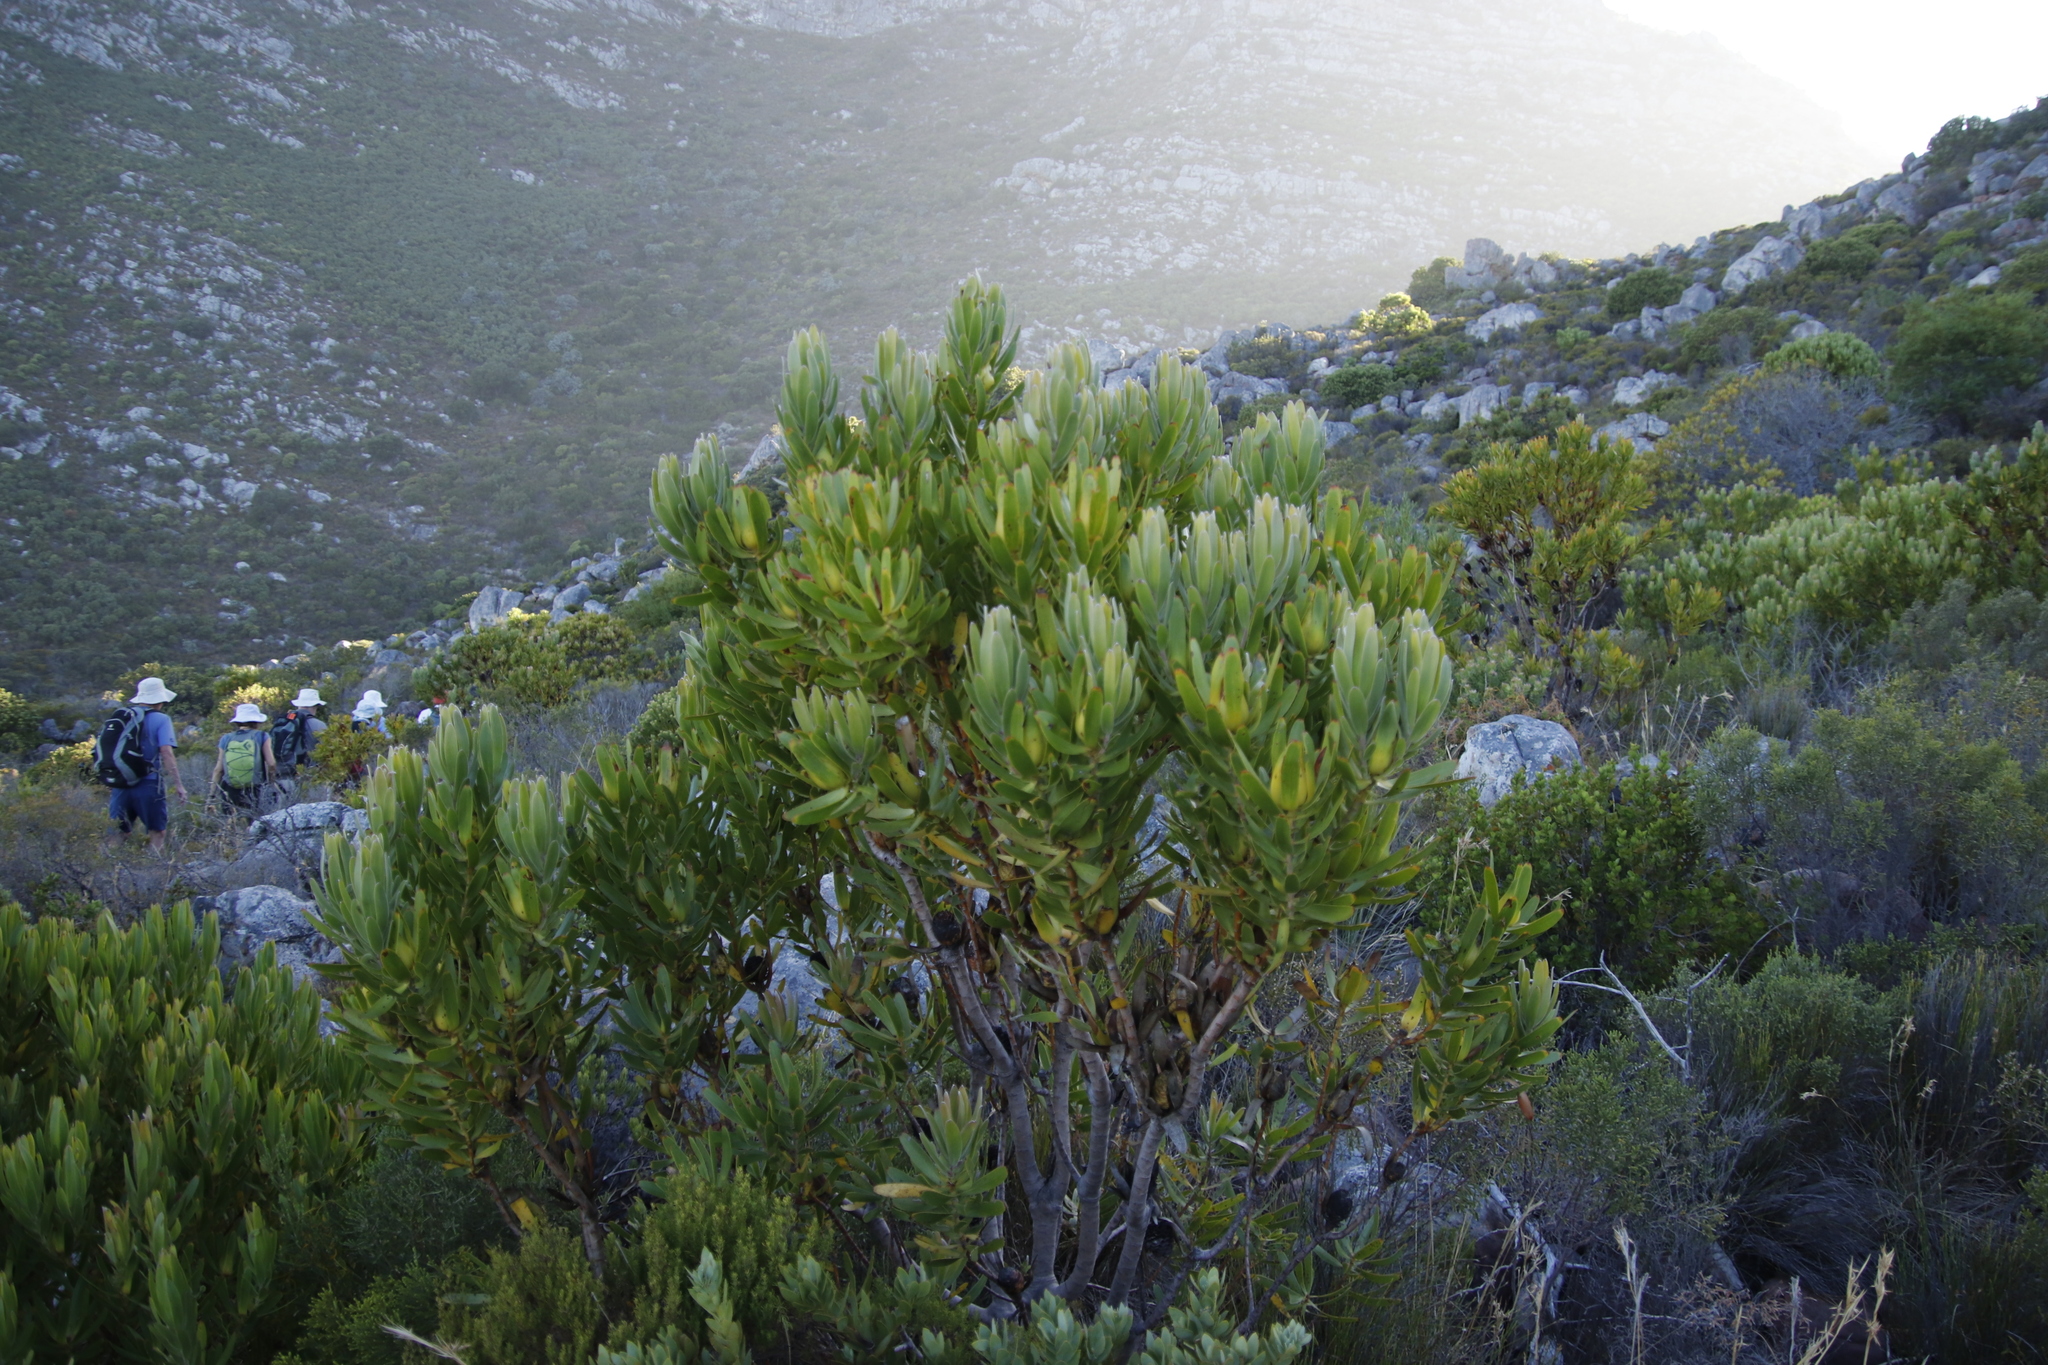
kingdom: Plantae
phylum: Tracheophyta
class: Magnoliopsida
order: Proteales
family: Proteaceae
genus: Leucadendron
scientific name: Leucadendron laureolum
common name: Golden sunshinebush
